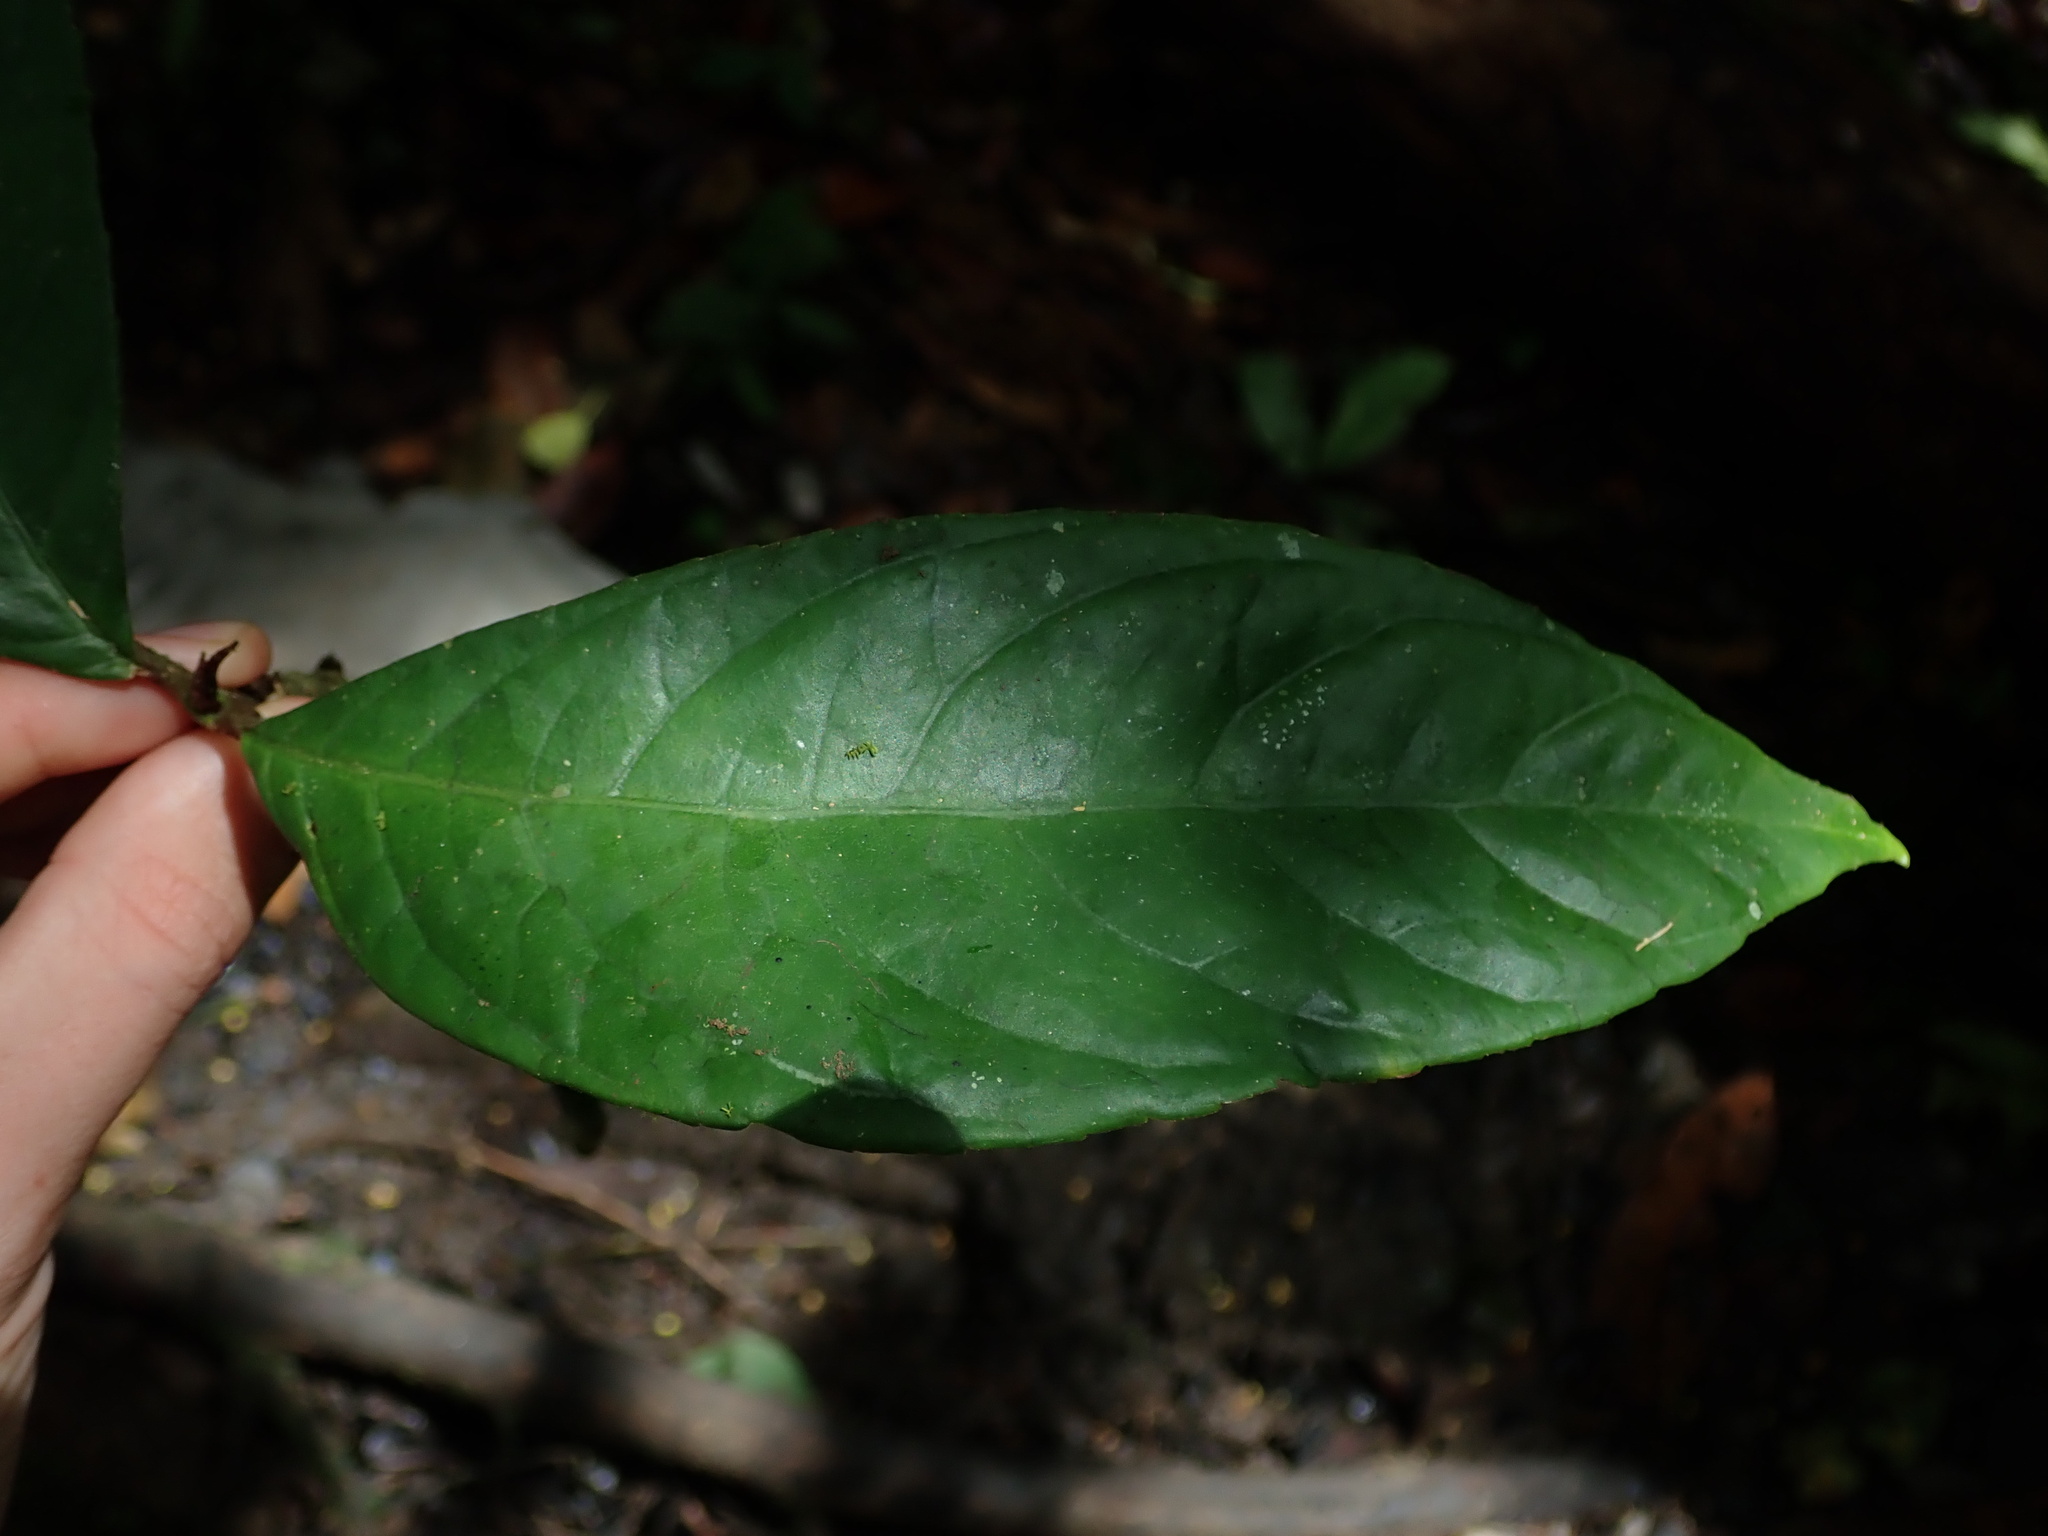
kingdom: Plantae
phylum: Tracheophyta
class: Magnoliopsida
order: Lamiales
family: Gesneriaceae
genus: Drymonia
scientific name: Drymonia macrophylla
